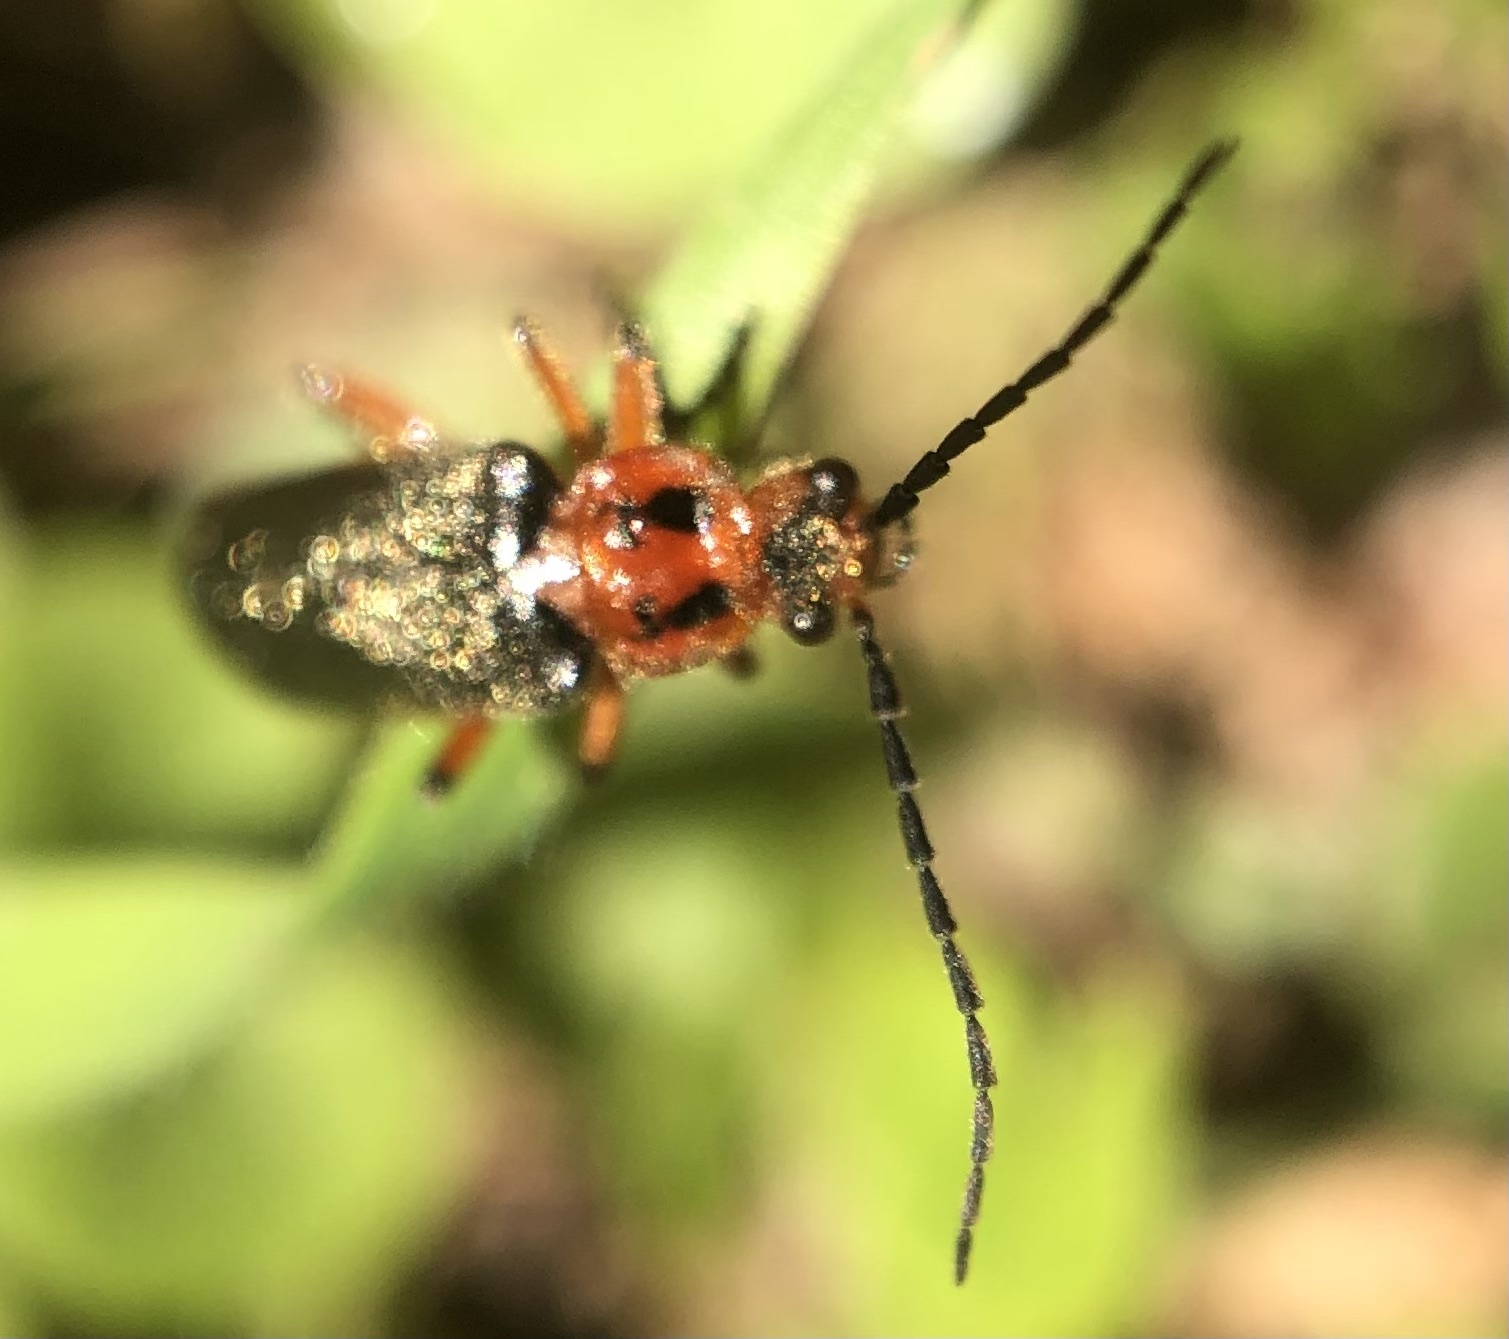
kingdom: Animalia
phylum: Arthropoda
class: Insecta
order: Coleoptera
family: Cantharidae
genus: Atalantycha
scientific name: Atalantycha bilineata
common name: Two-lined leatherwing
